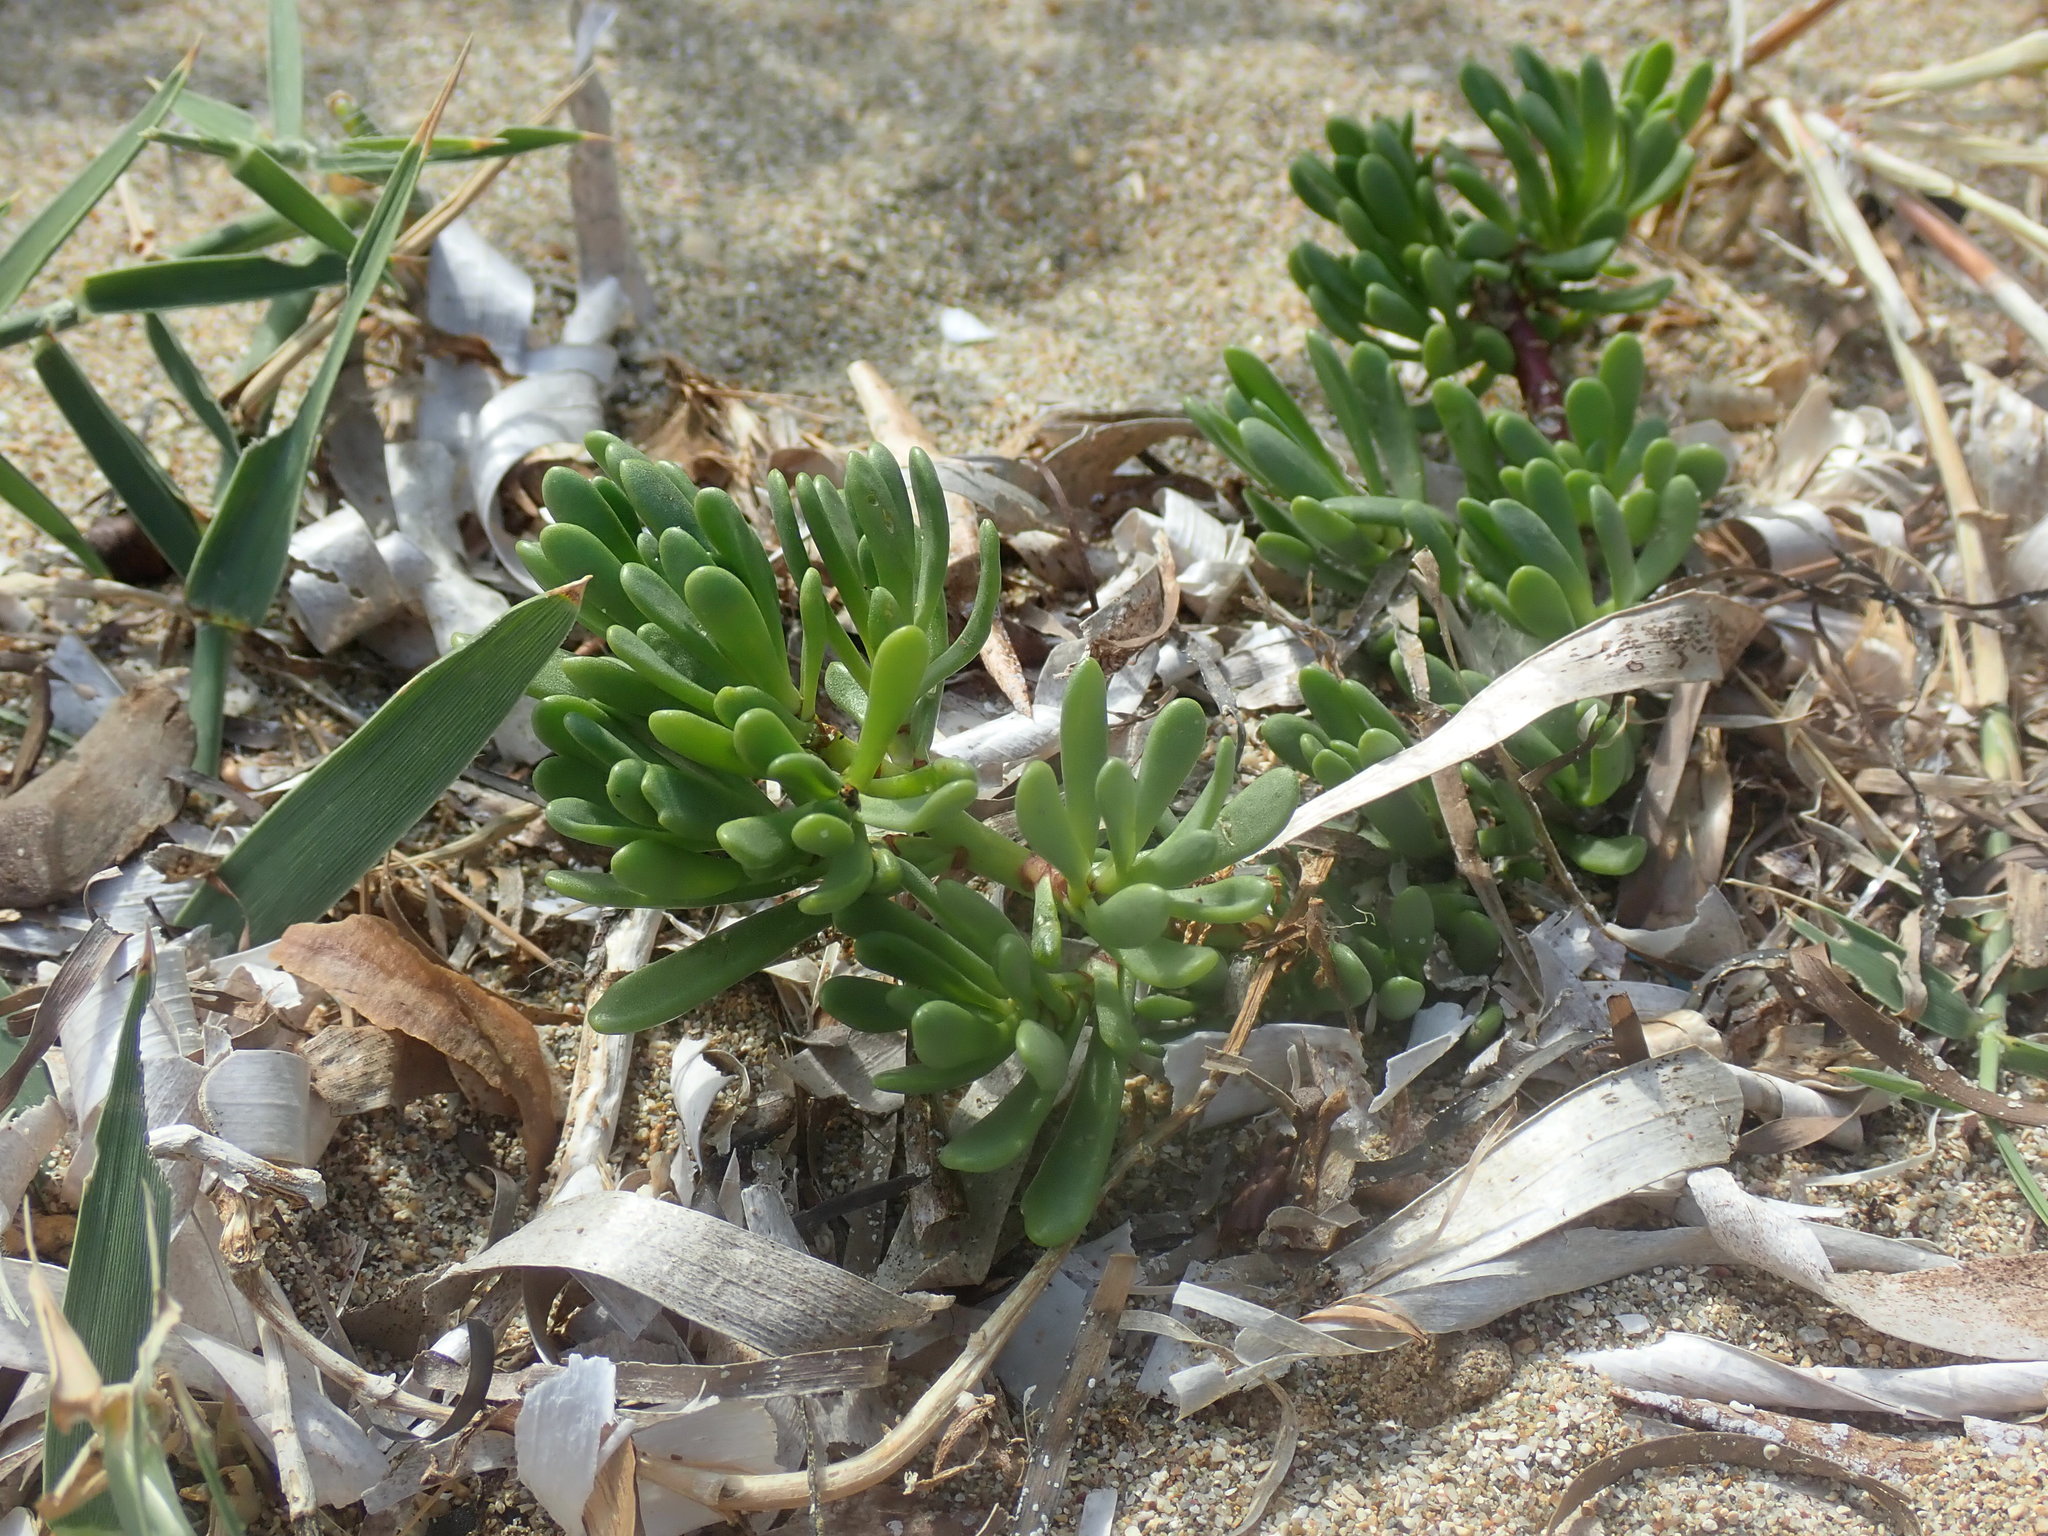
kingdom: Plantae
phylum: Tracheophyta
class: Magnoliopsida
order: Asterales
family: Asteraceae
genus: Limbarda
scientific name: Limbarda crithmoides
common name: Golden samphire
